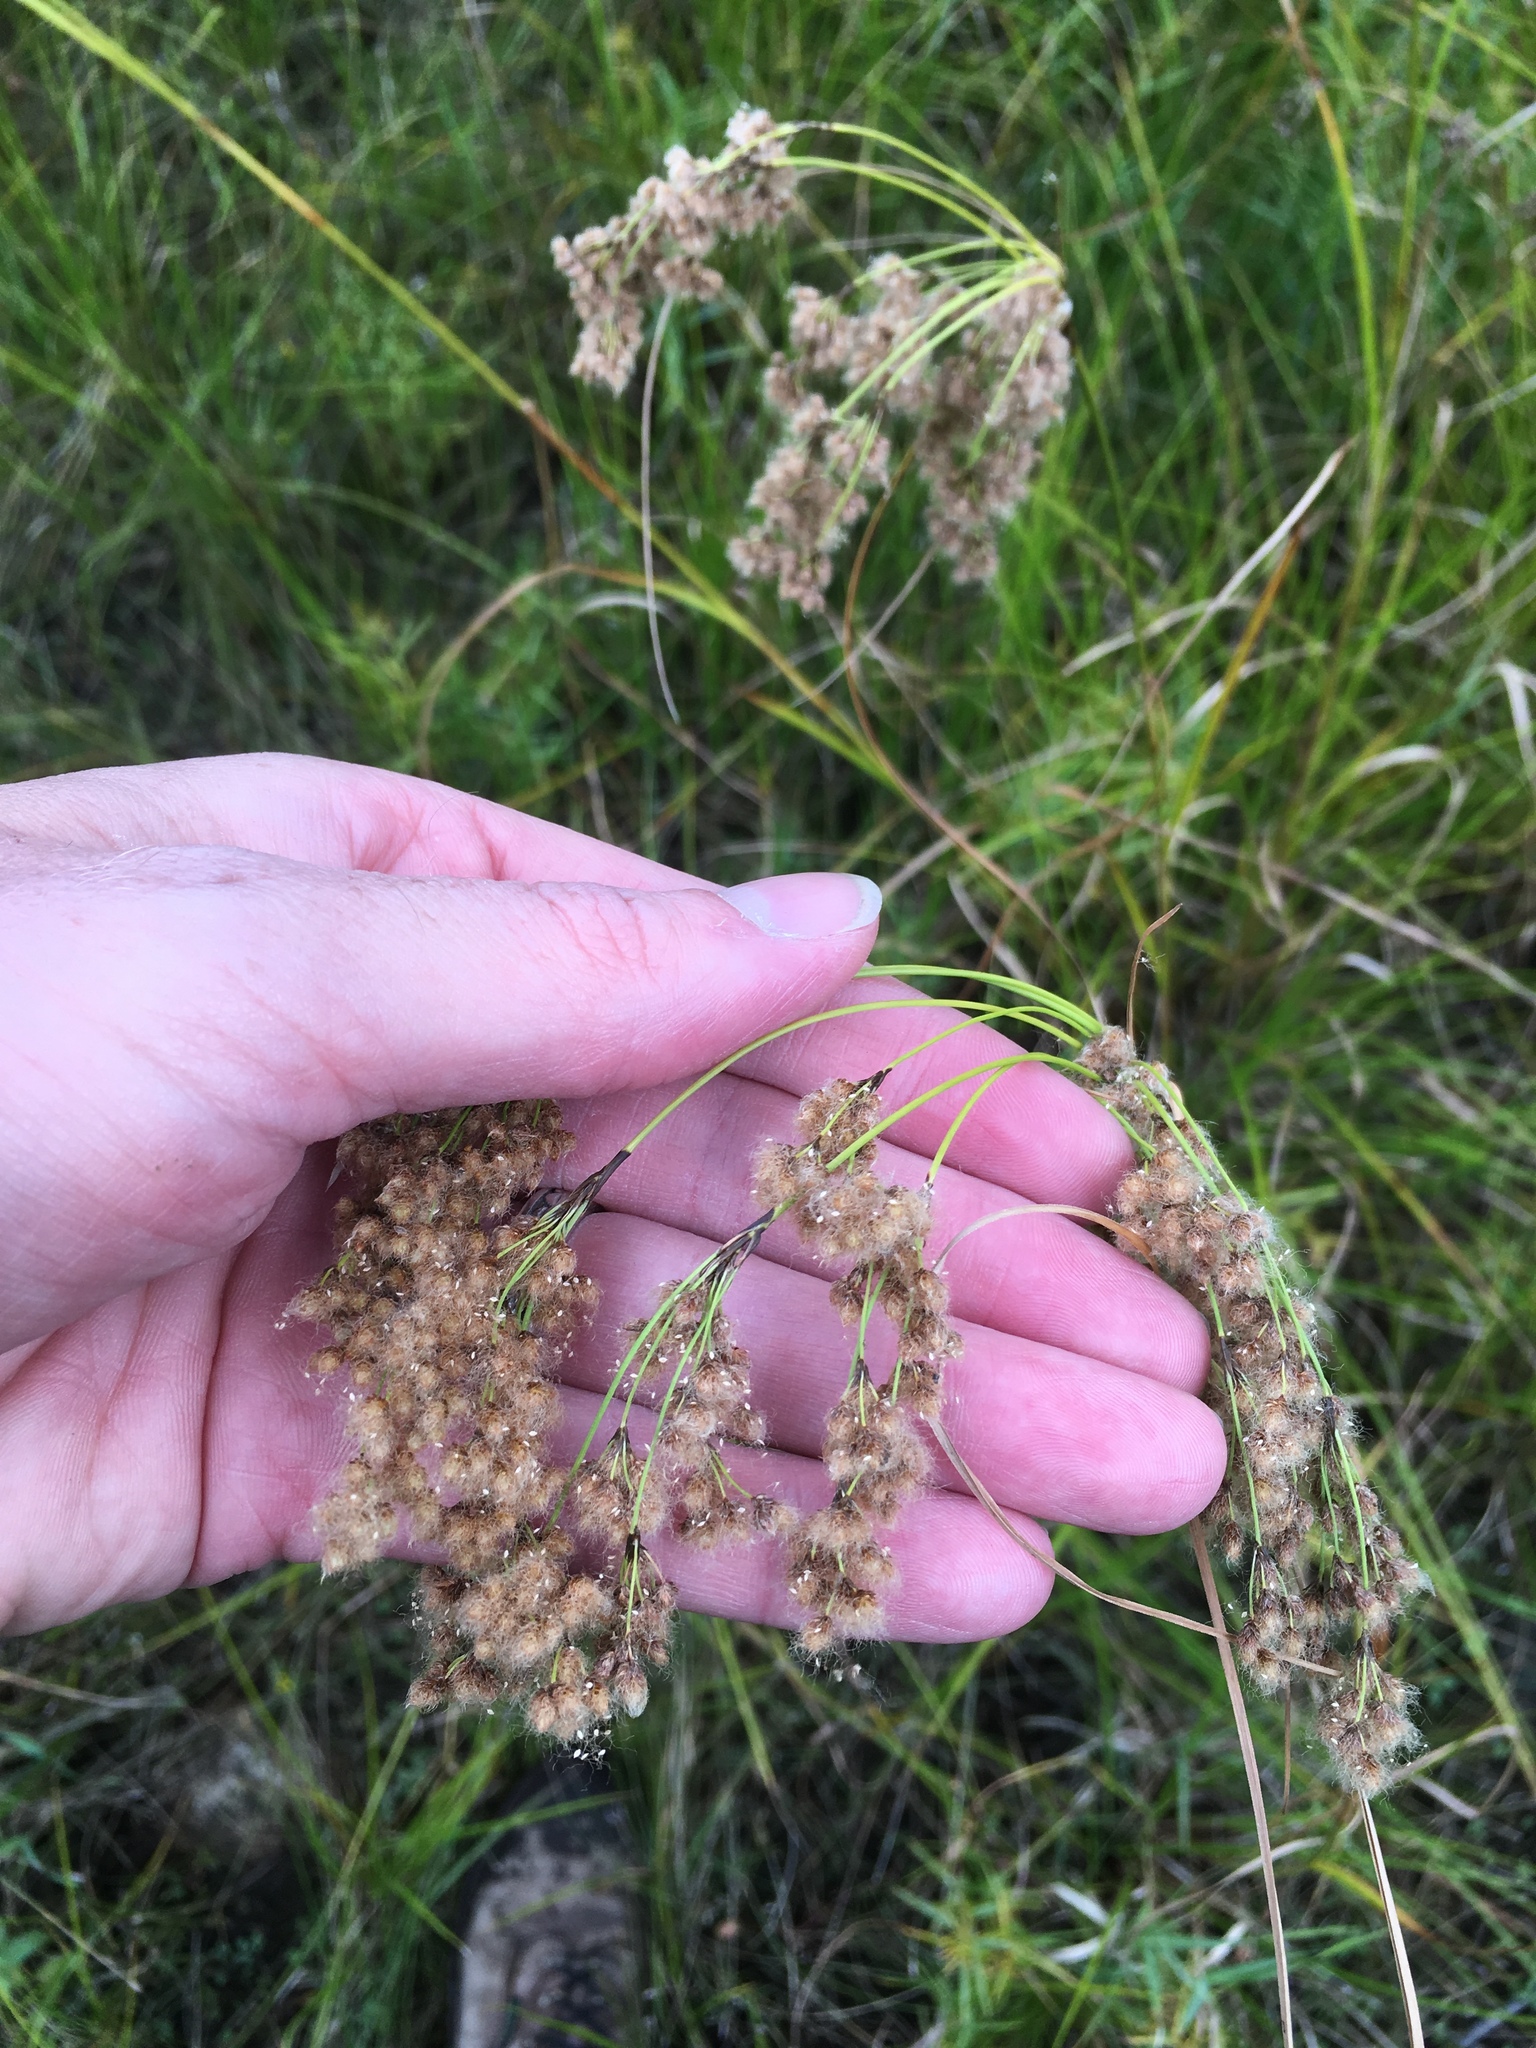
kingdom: Plantae
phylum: Tracheophyta
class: Liliopsida
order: Poales
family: Cyperaceae
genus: Scirpus
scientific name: Scirpus cyperinus
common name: Black-sheathed bulrush
